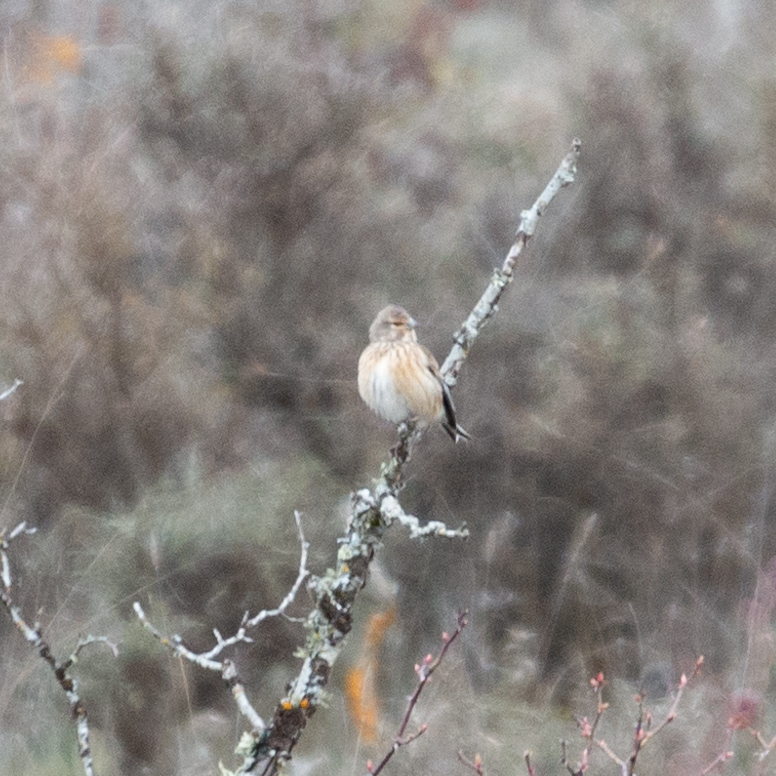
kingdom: Animalia
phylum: Chordata
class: Aves
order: Passeriformes
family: Fringillidae
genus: Linaria
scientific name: Linaria cannabina
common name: Common linnet
